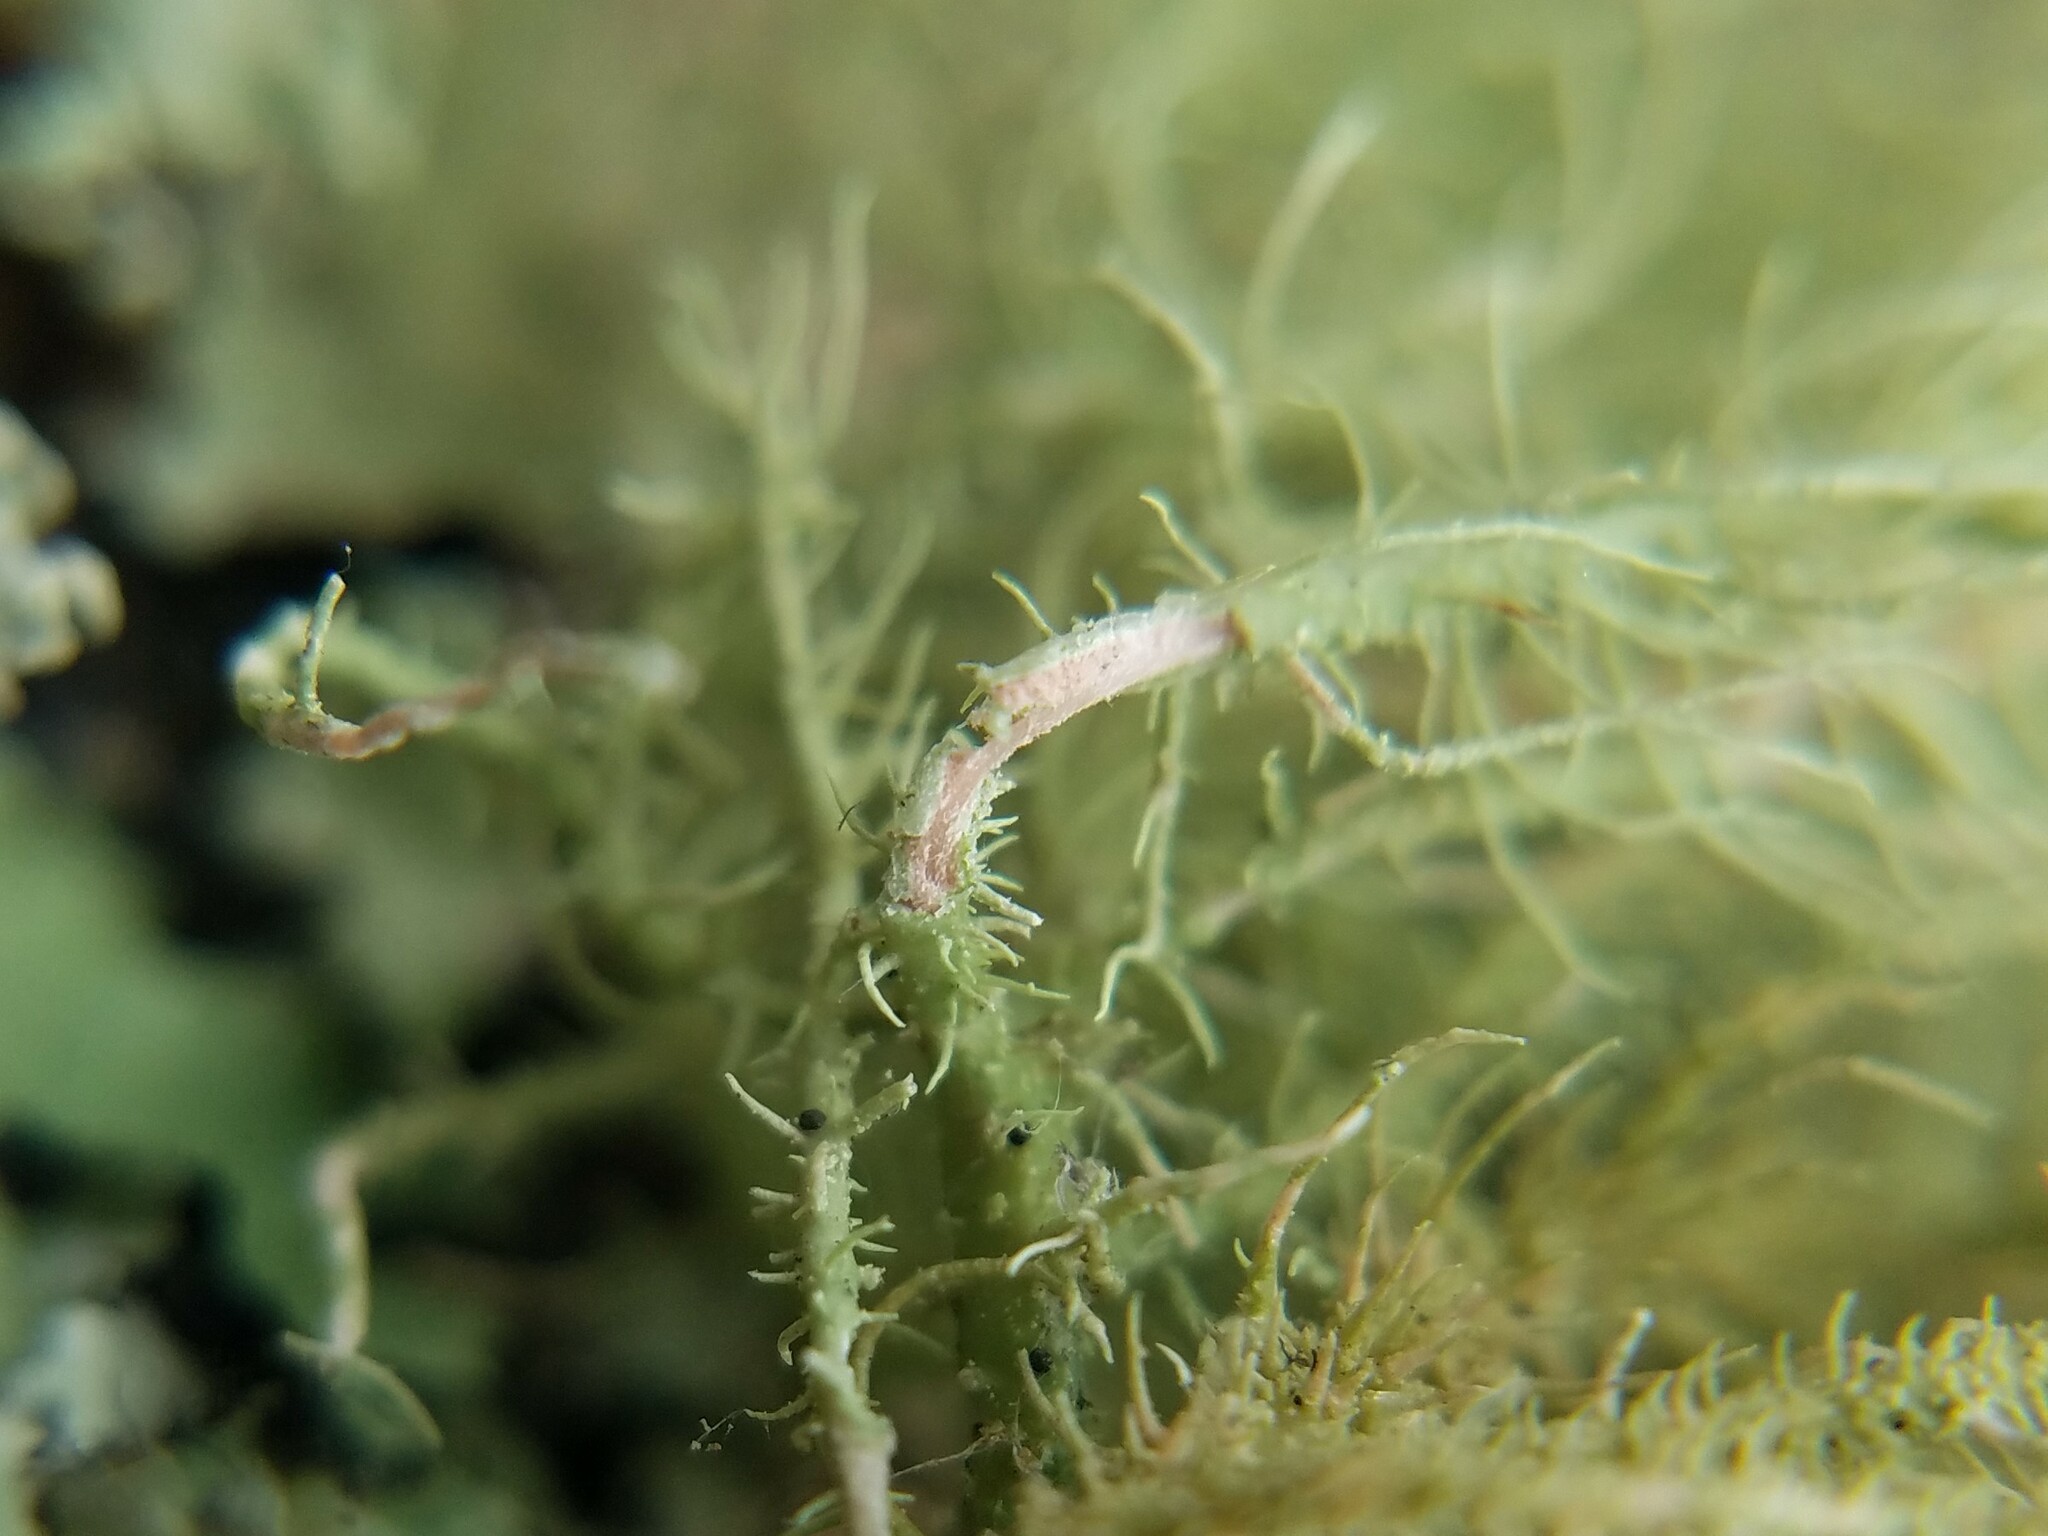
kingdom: Fungi
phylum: Ascomycota
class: Lecanoromycetes
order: Lecanorales
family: Parmeliaceae
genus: Usnea
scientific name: Usnea mutabilis
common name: Bloody beard
